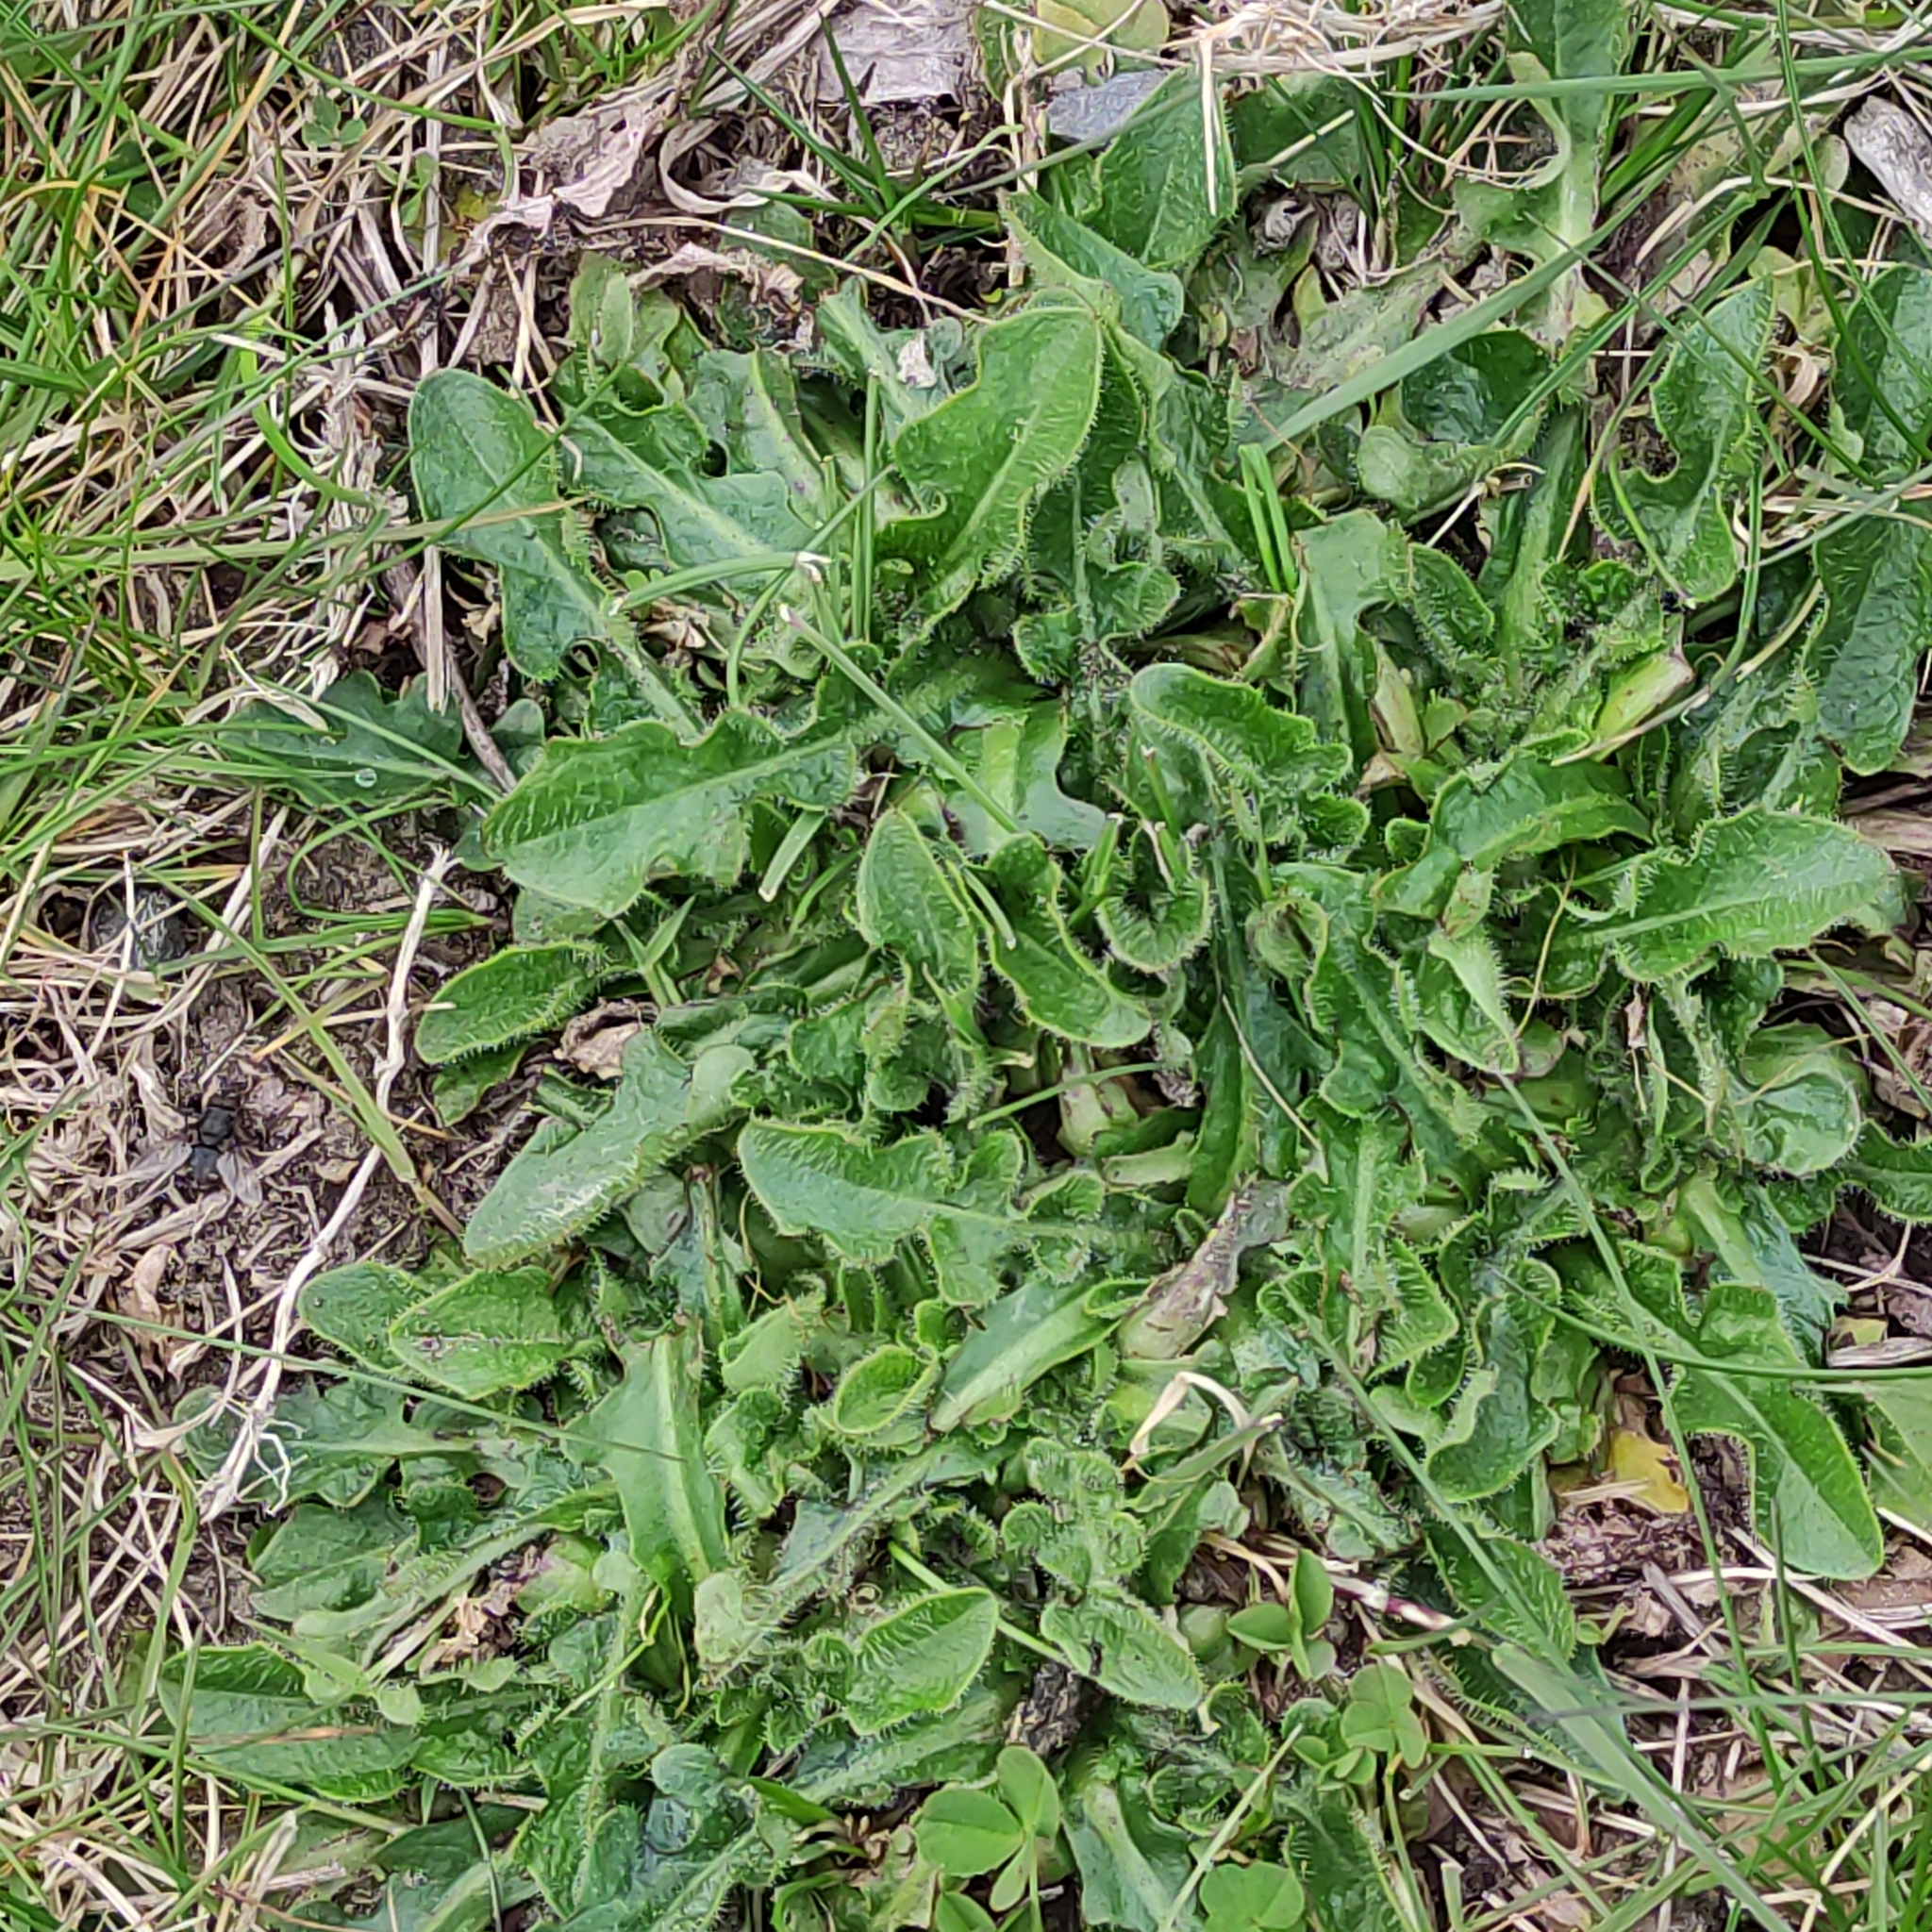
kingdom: Plantae
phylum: Tracheophyta
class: Magnoliopsida
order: Asterales
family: Asteraceae
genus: Hypochaeris
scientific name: Hypochaeris radicata
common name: Flatweed
